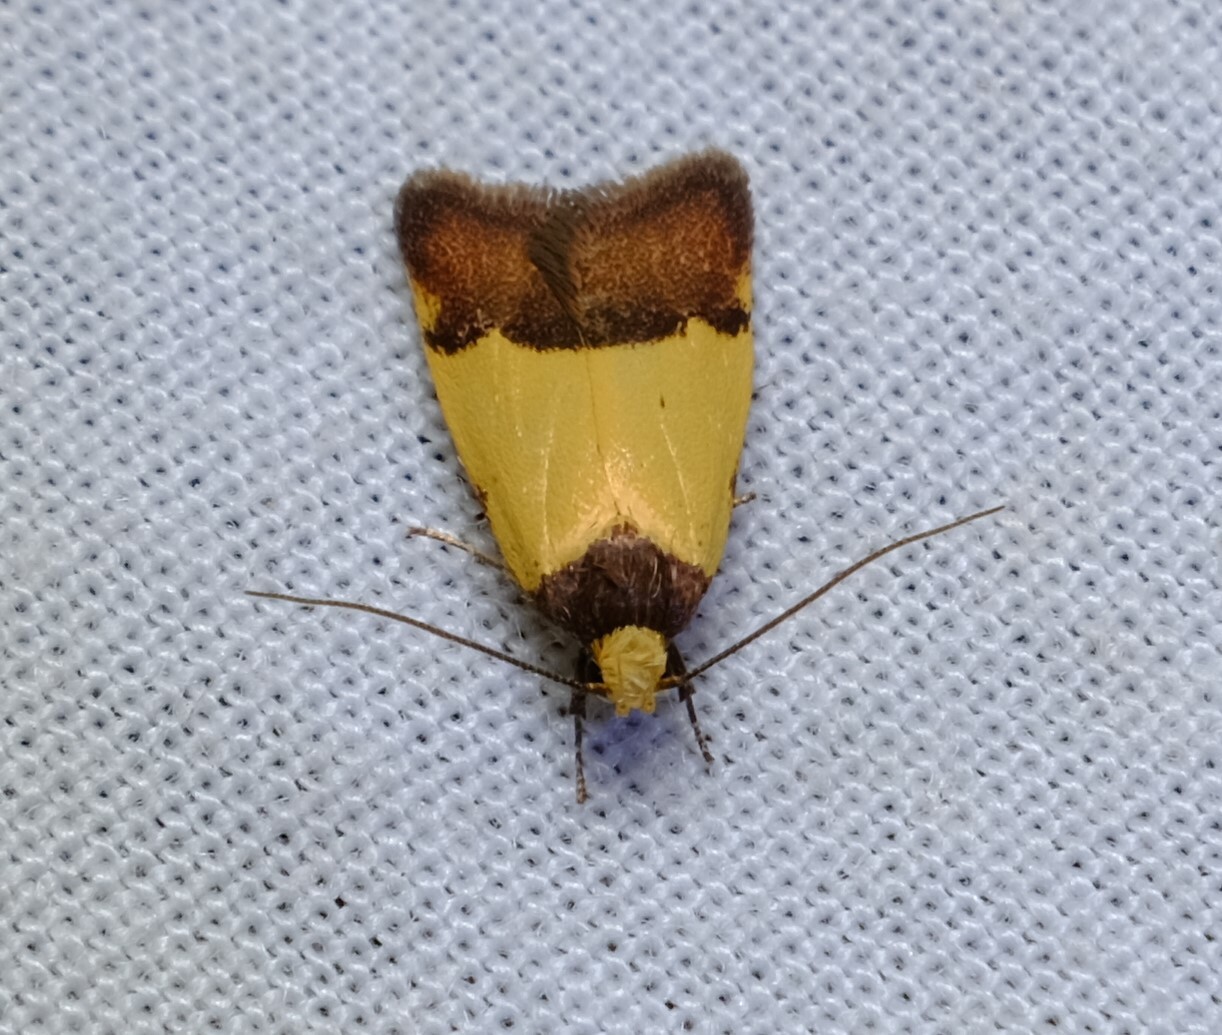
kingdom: Animalia
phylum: Arthropoda
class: Insecta
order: Lepidoptera
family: Oecophoridae
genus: Heteroteucha
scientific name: Heteroteucha kershawi
